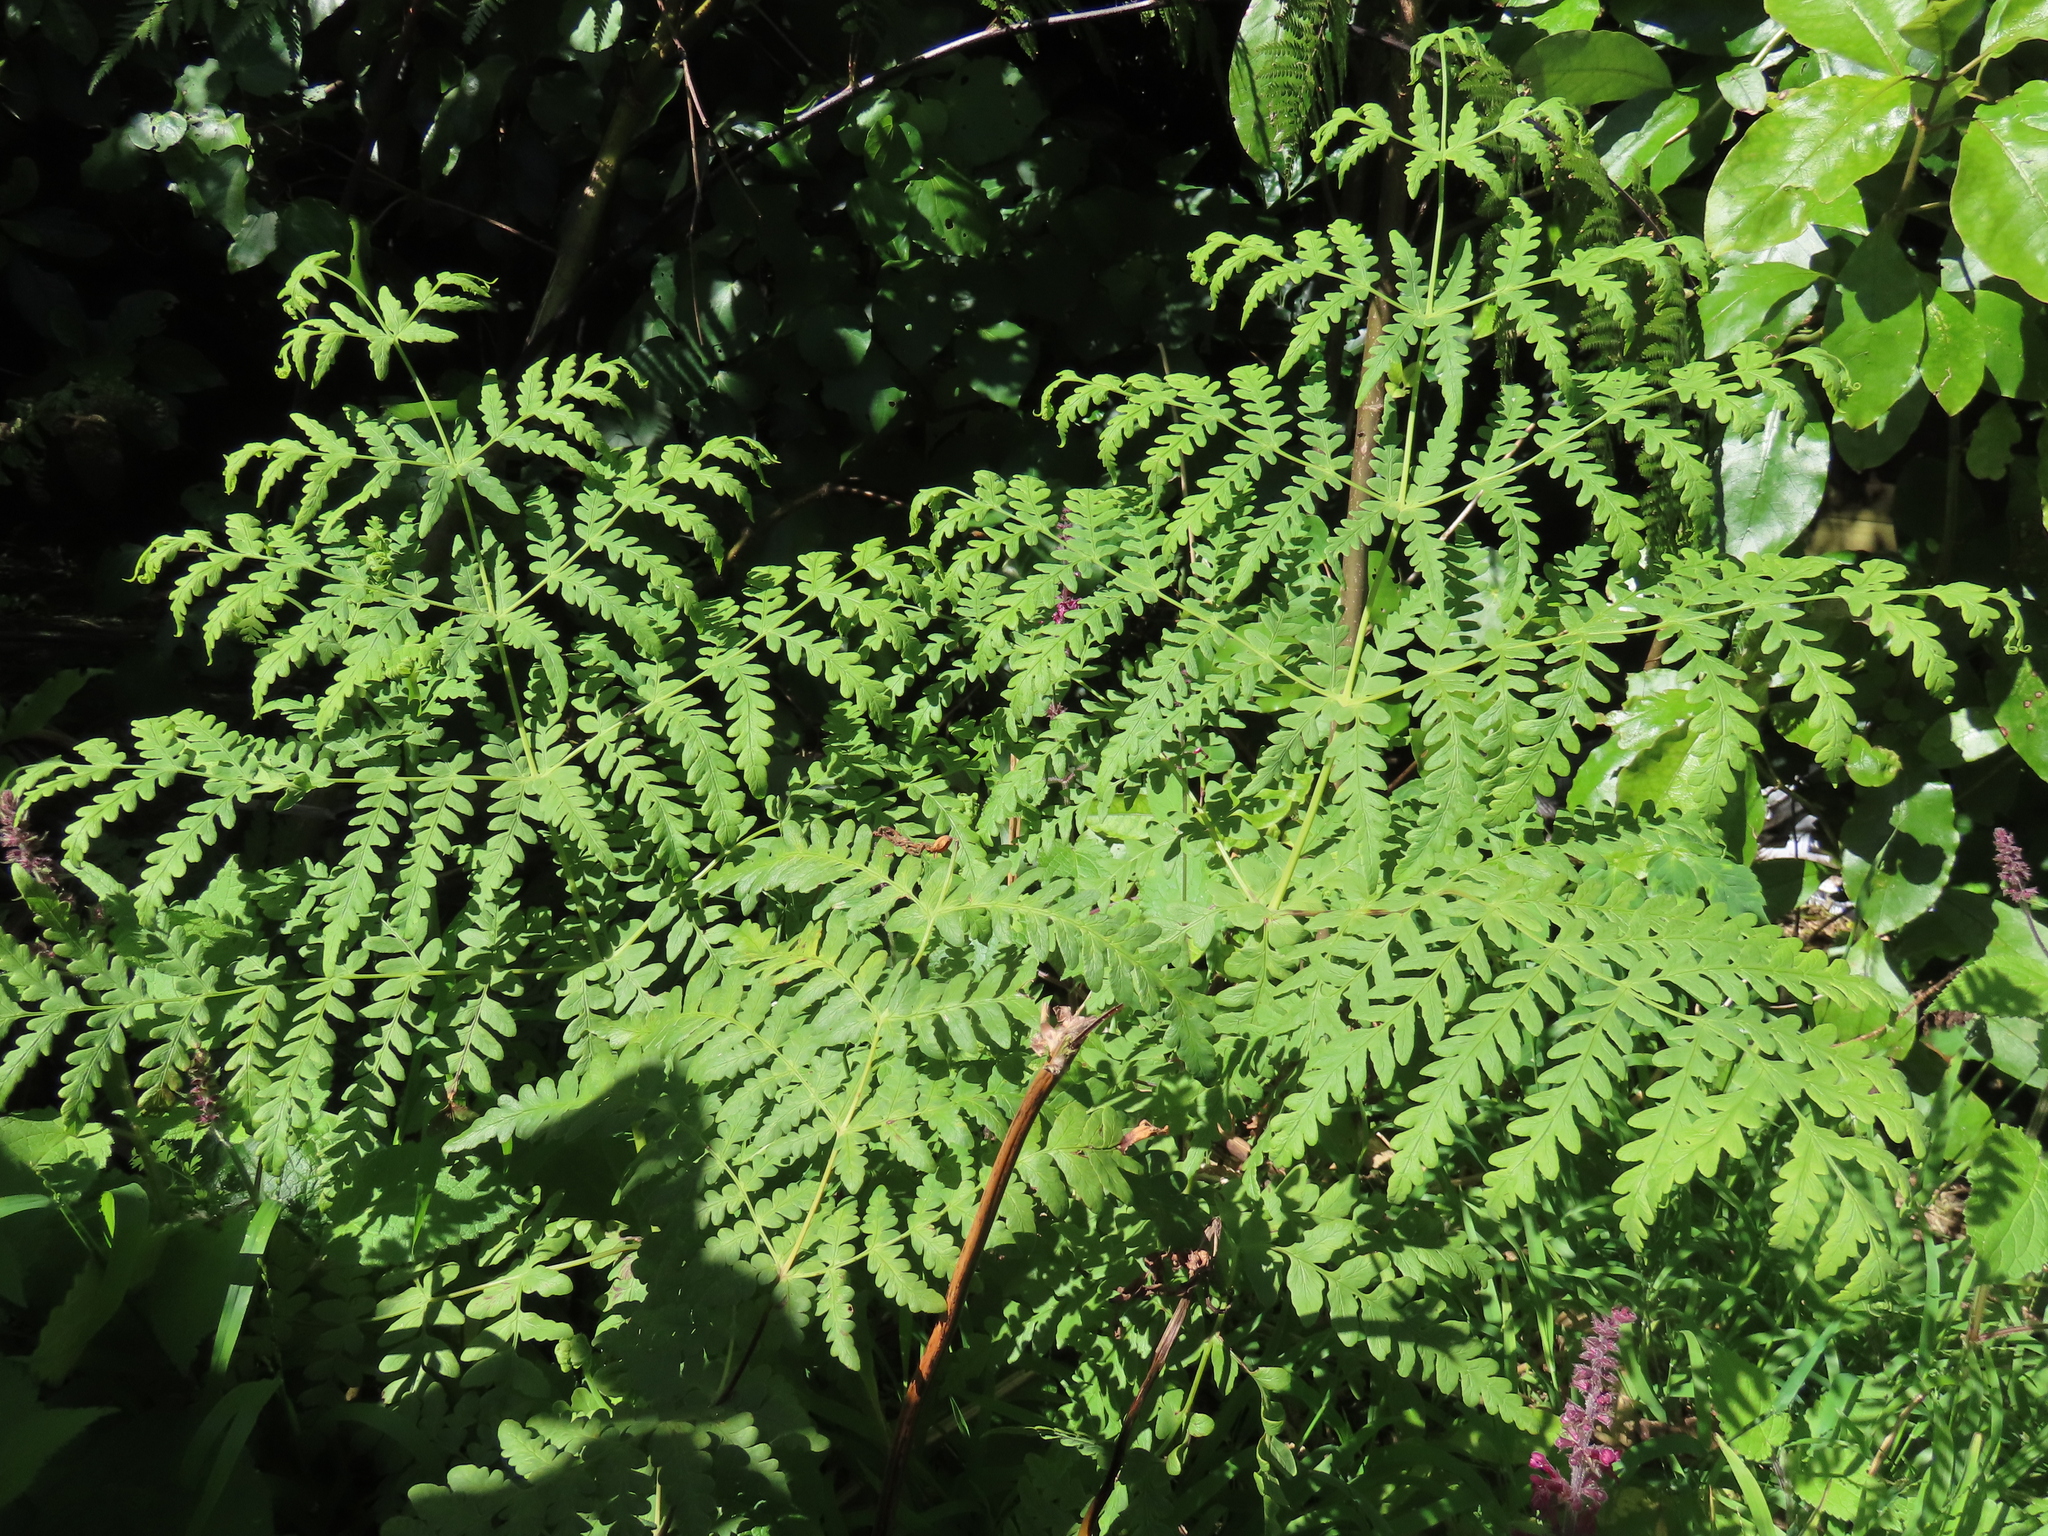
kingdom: Plantae
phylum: Tracheophyta
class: Polypodiopsida
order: Polypodiales
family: Dennstaedtiaceae
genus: Histiopteris
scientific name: Histiopteris incisa
